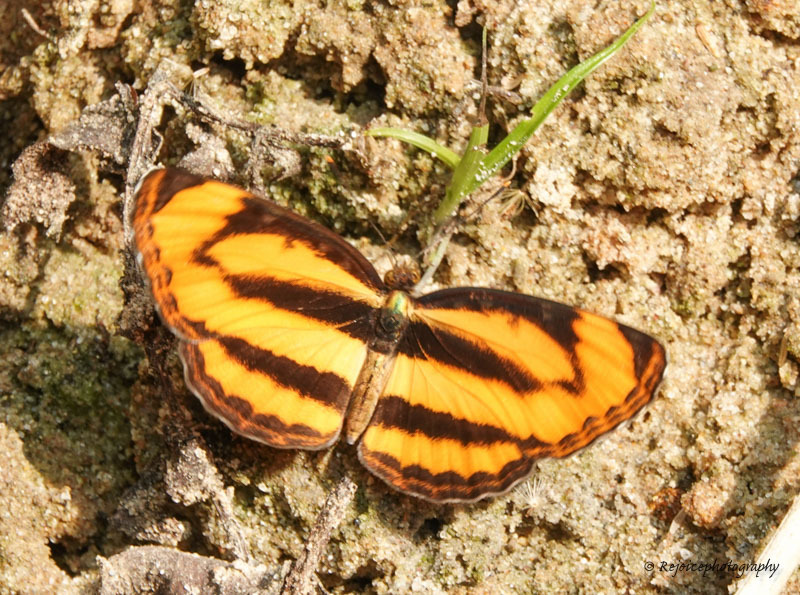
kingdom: Animalia
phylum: Arthropoda
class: Insecta
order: Lepidoptera
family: Nymphalidae
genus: Pantoporia
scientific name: Pantoporia hordonia
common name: Common lascar
